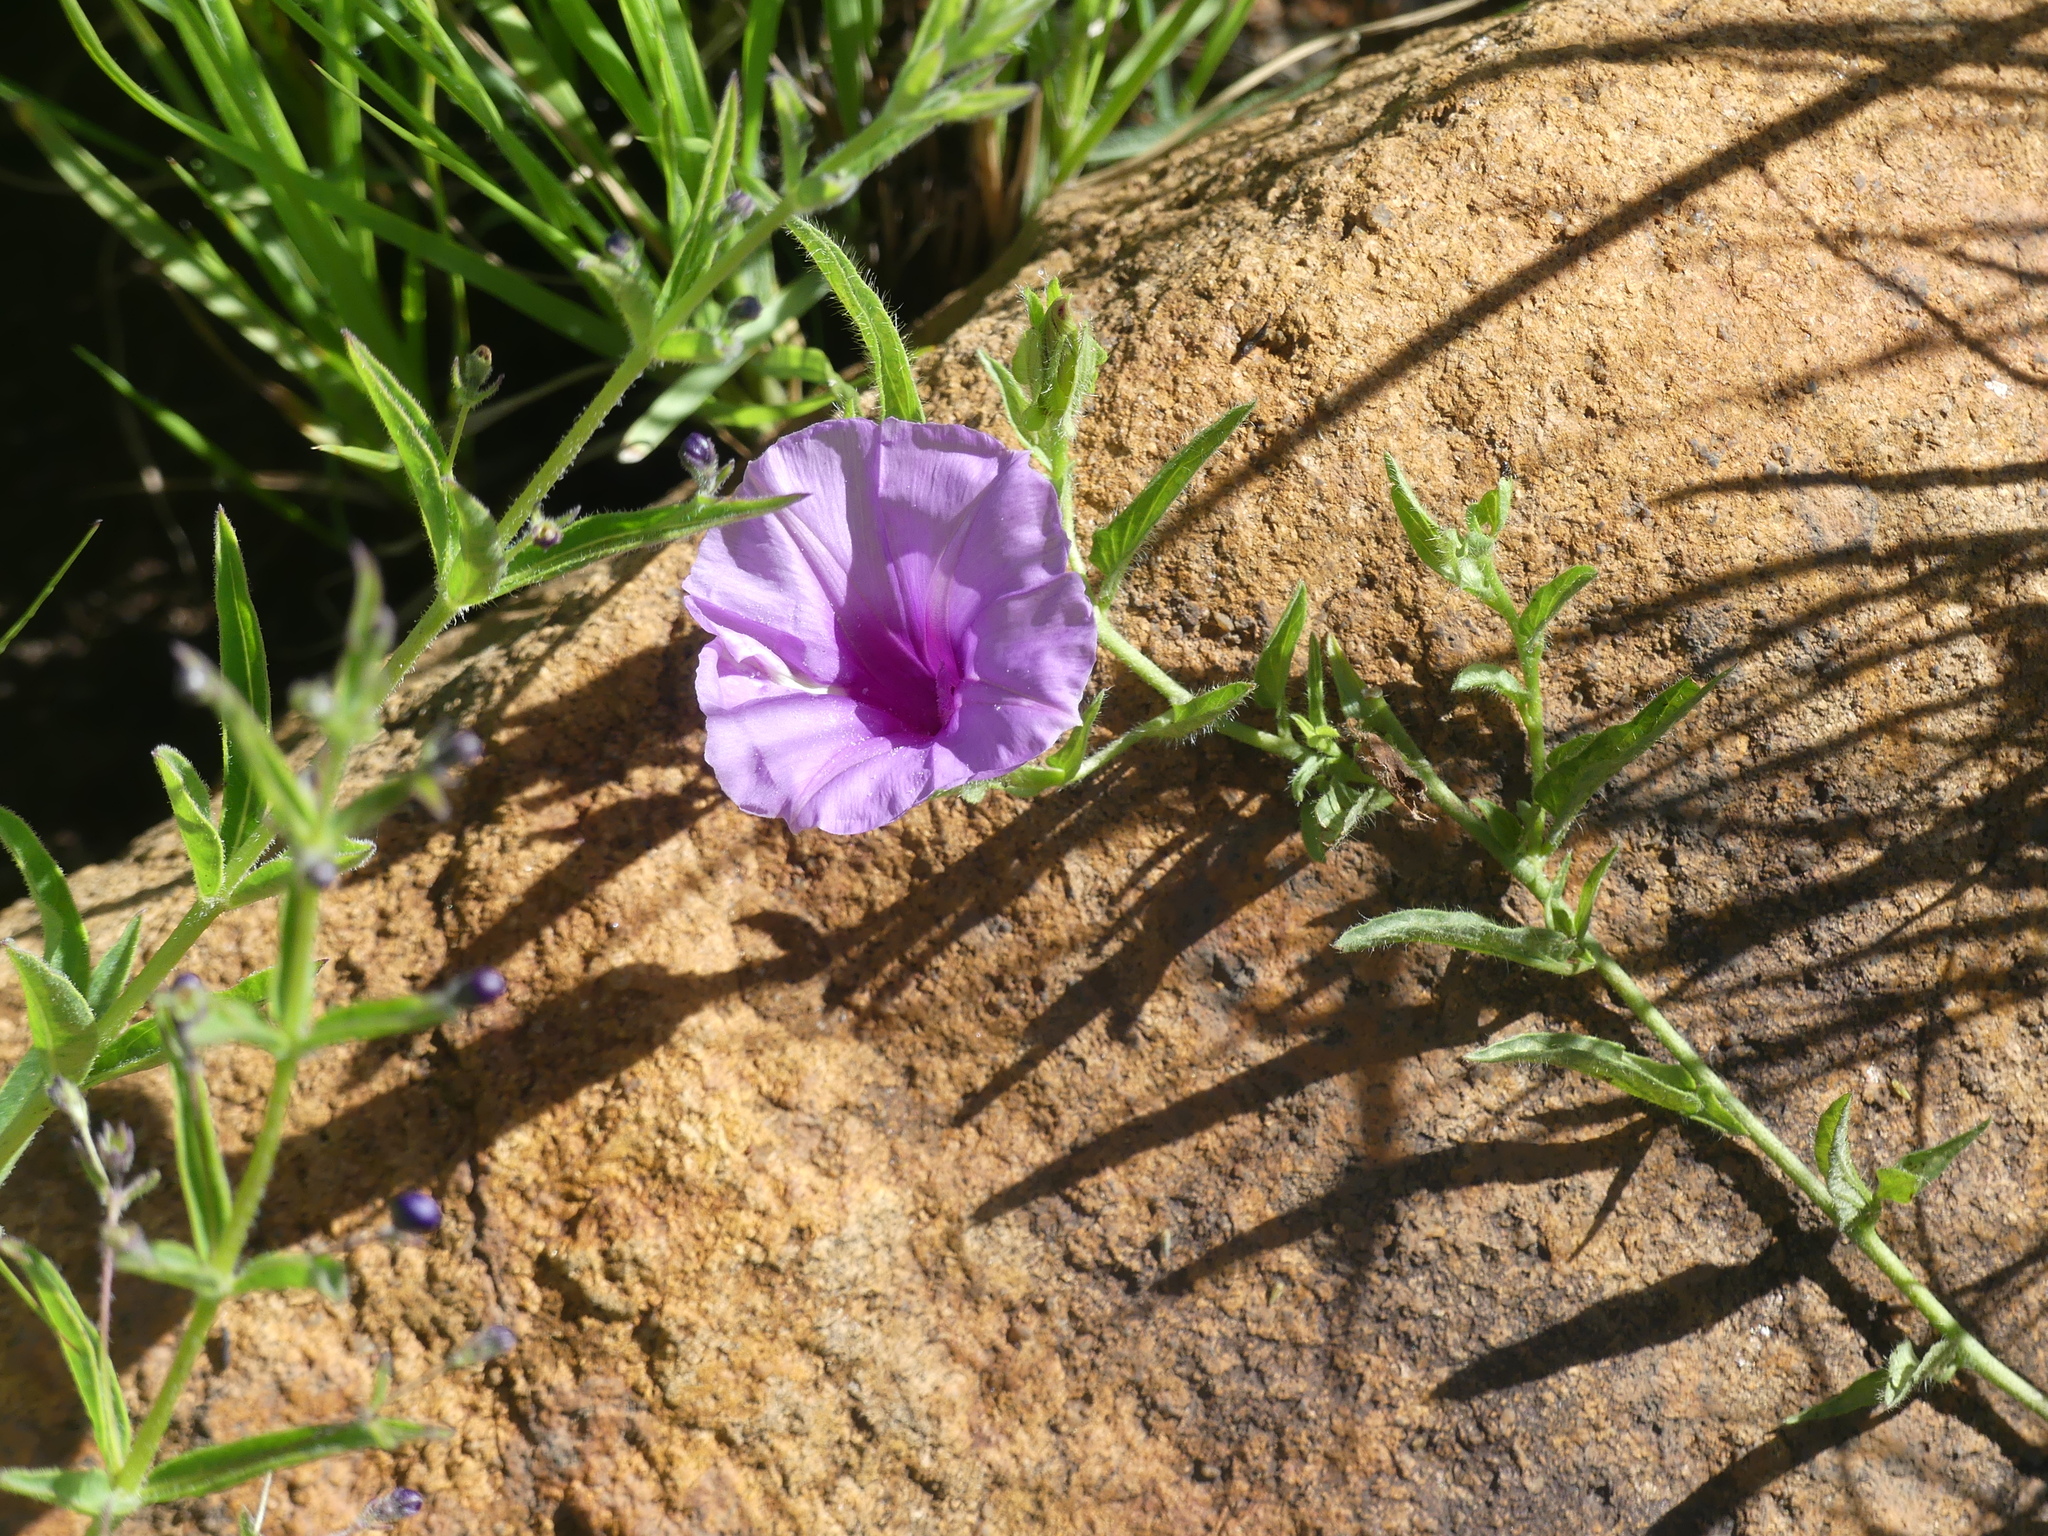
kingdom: Plantae
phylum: Tracheophyta
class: Magnoliopsida
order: Solanales
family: Convolvulaceae
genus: Ipomoea
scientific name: Ipomoea crassipes
